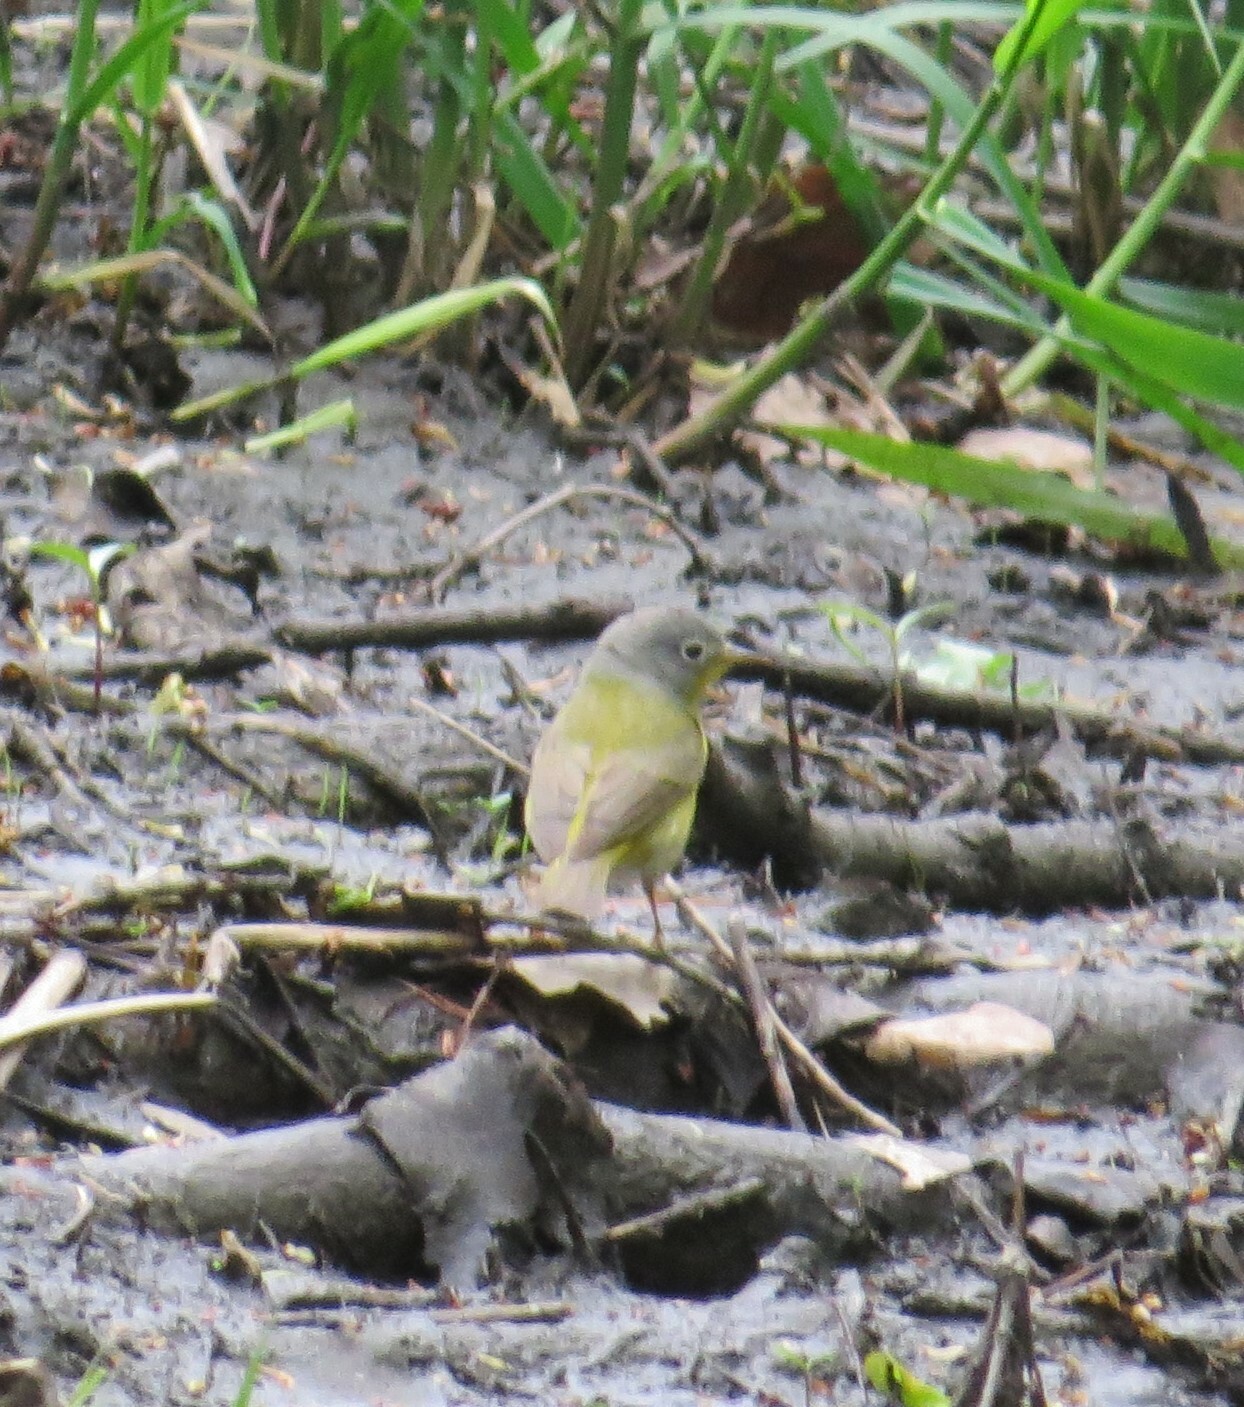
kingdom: Animalia
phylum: Chordata
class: Aves
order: Passeriformes
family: Parulidae
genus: Leiothlypis
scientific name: Leiothlypis ruficapilla
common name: Nashville warbler
